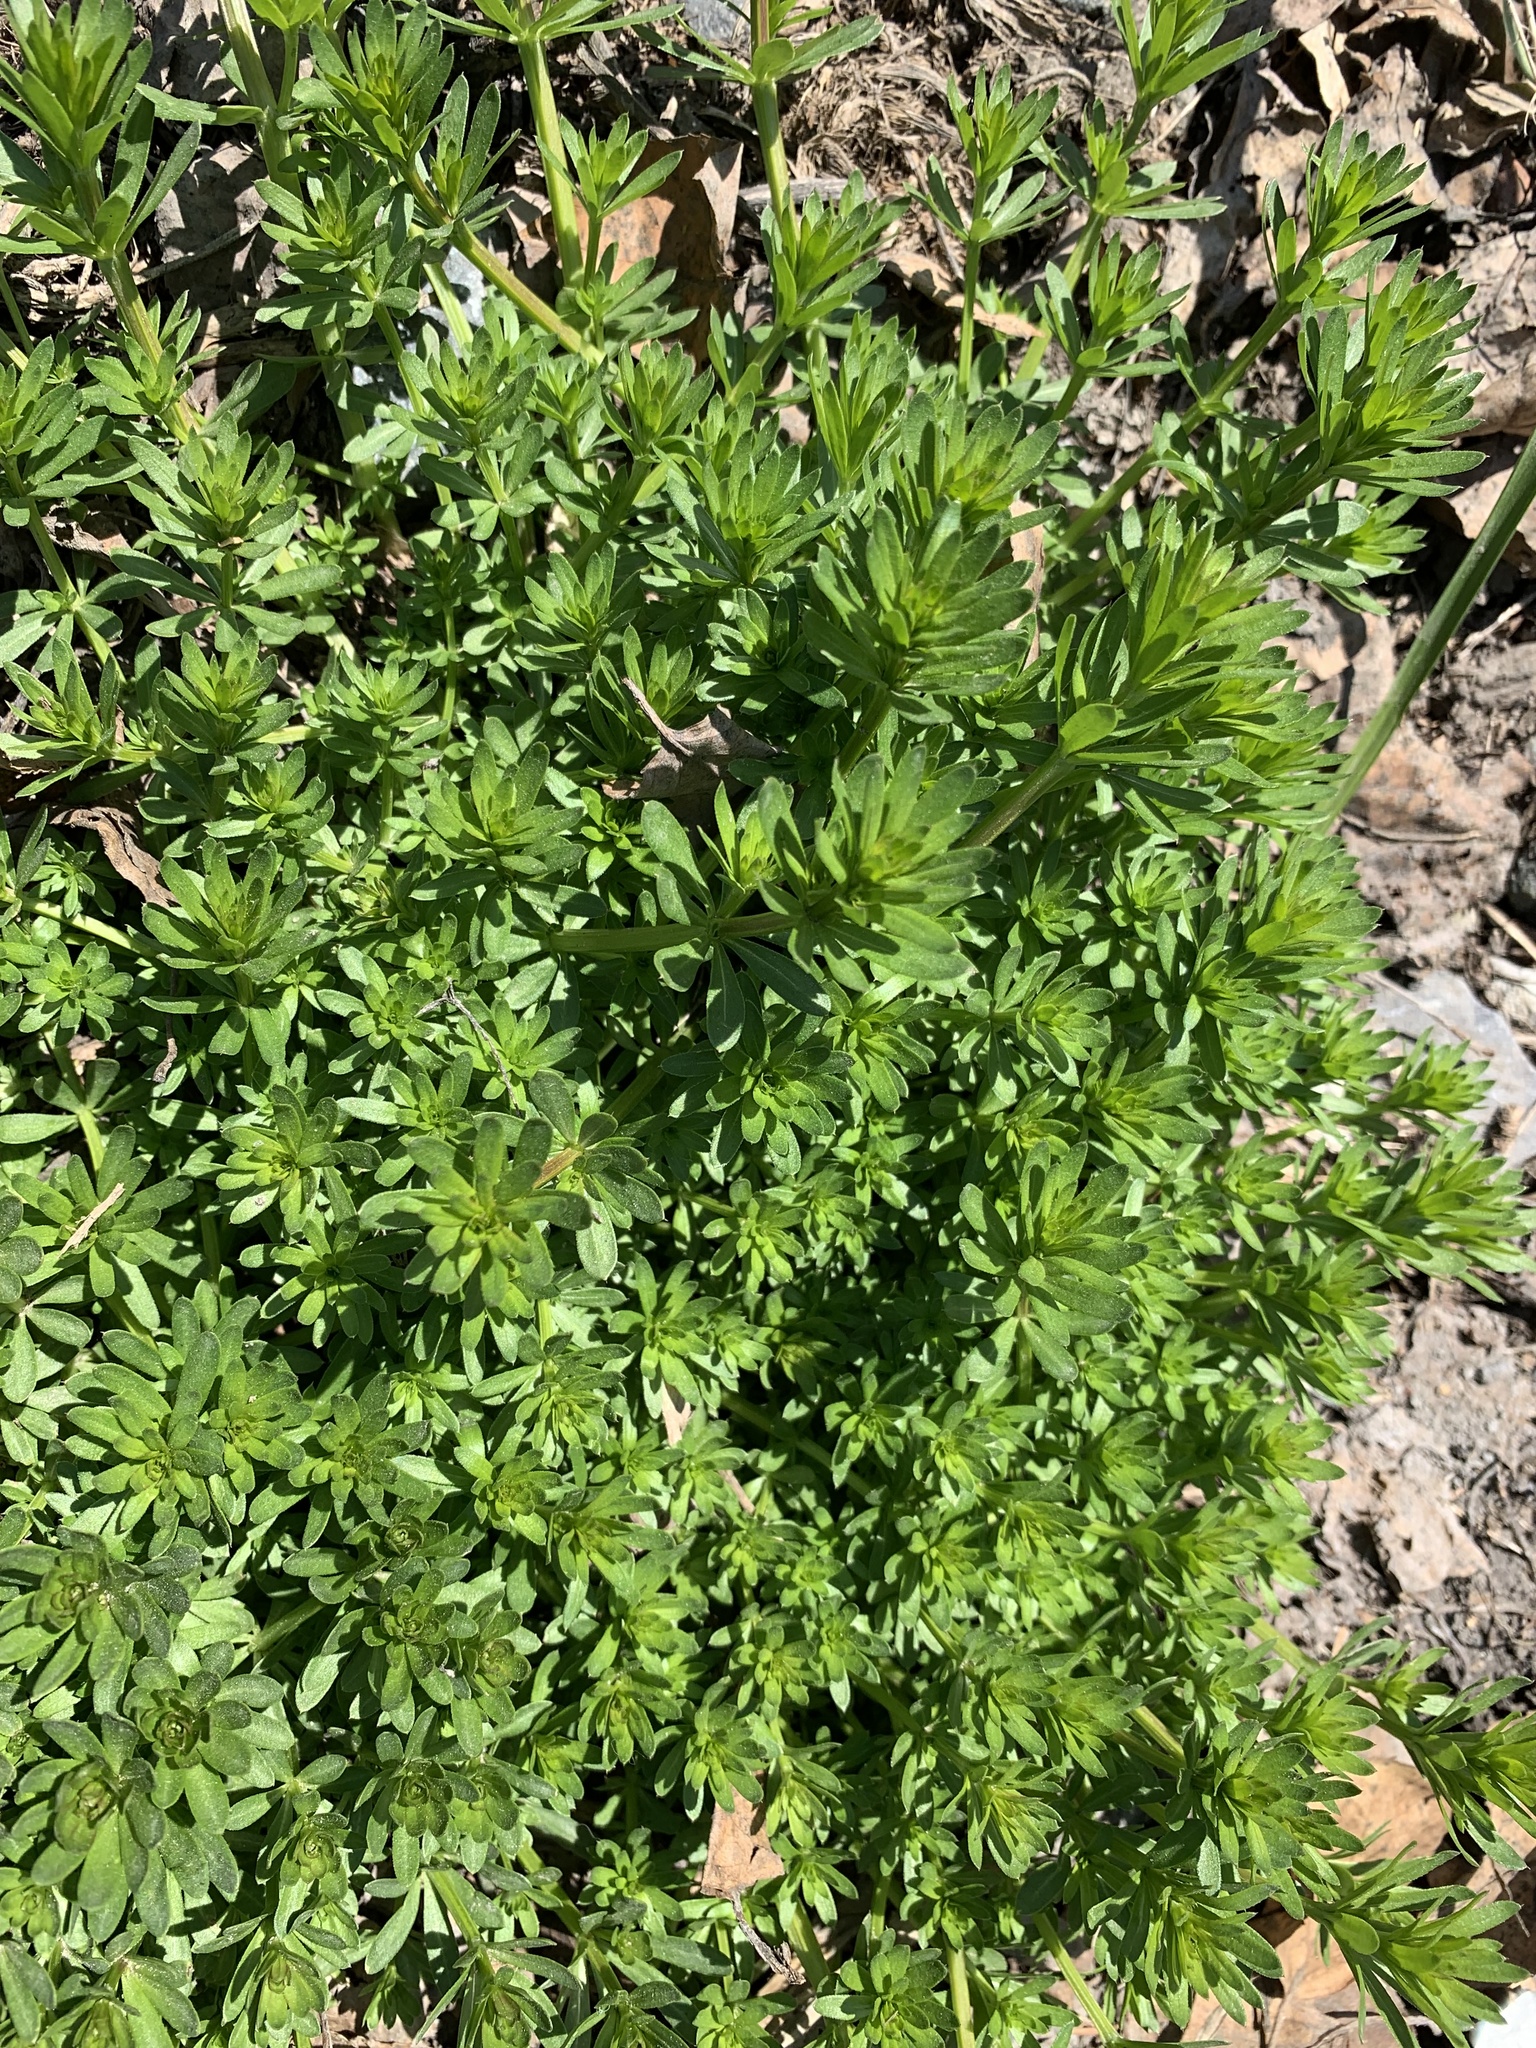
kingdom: Plantae
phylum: Tracheophyta
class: Magnoliopsida
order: Gentianales
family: Rubiaceae
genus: Galium
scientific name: Galium mollugo
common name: Hedge bedstraw
